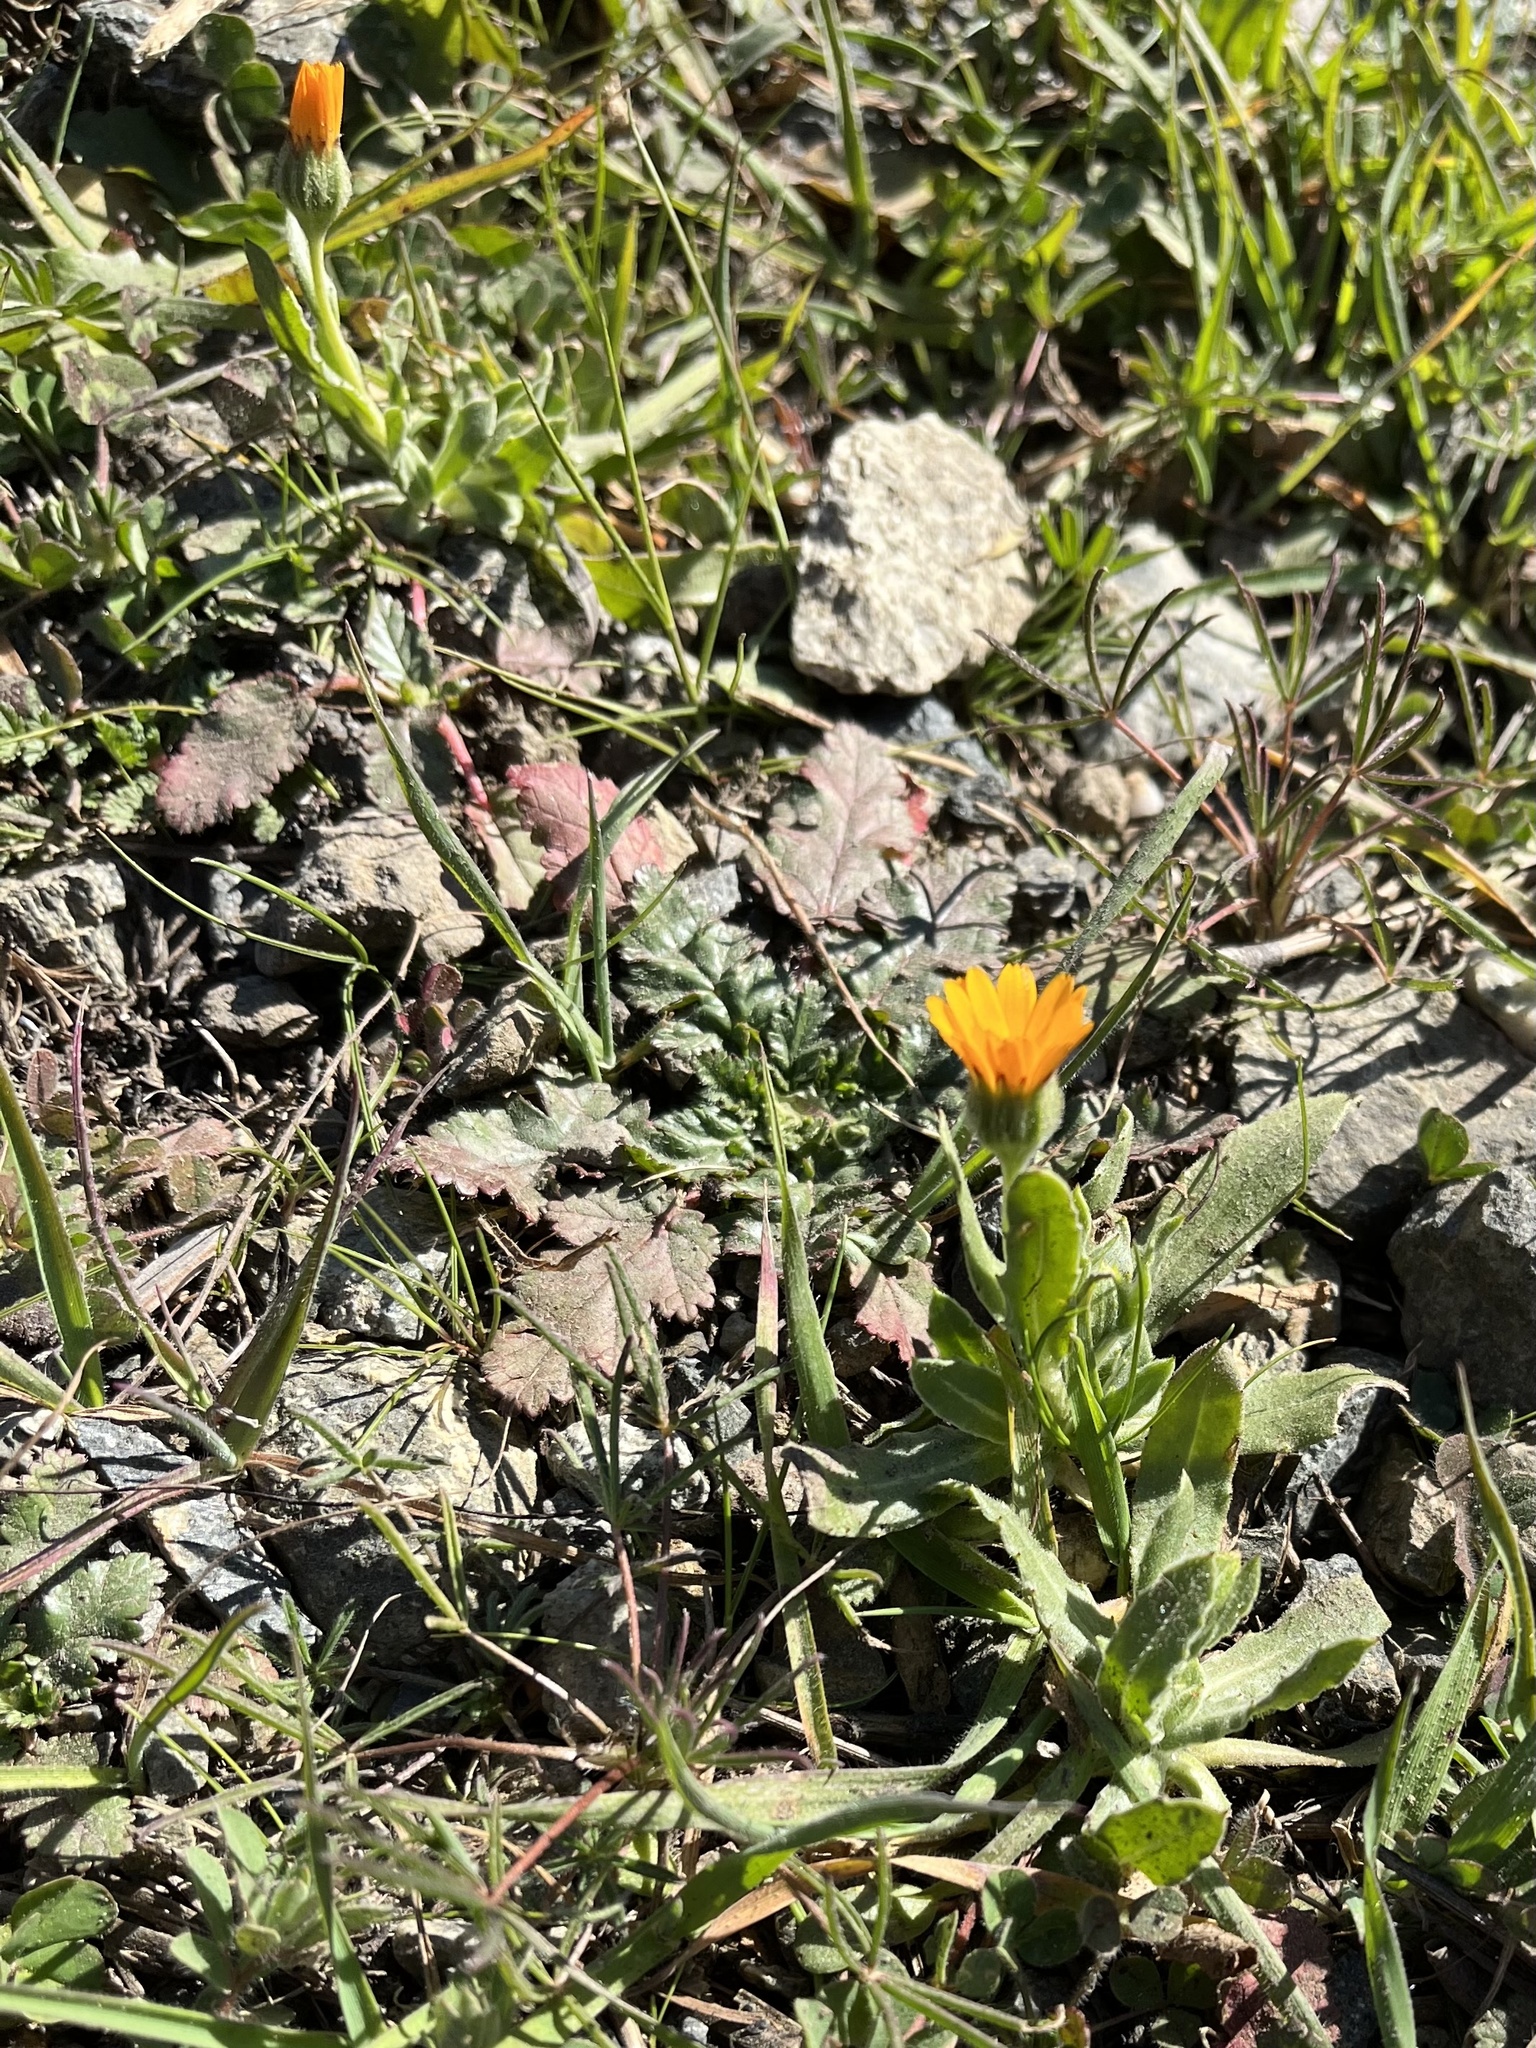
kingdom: Plantae
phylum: Tracheophyta
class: Magnoliopsida
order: Asterales
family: Asteraceae
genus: Calendula
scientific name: Calendula arvensis
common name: Field marigold
